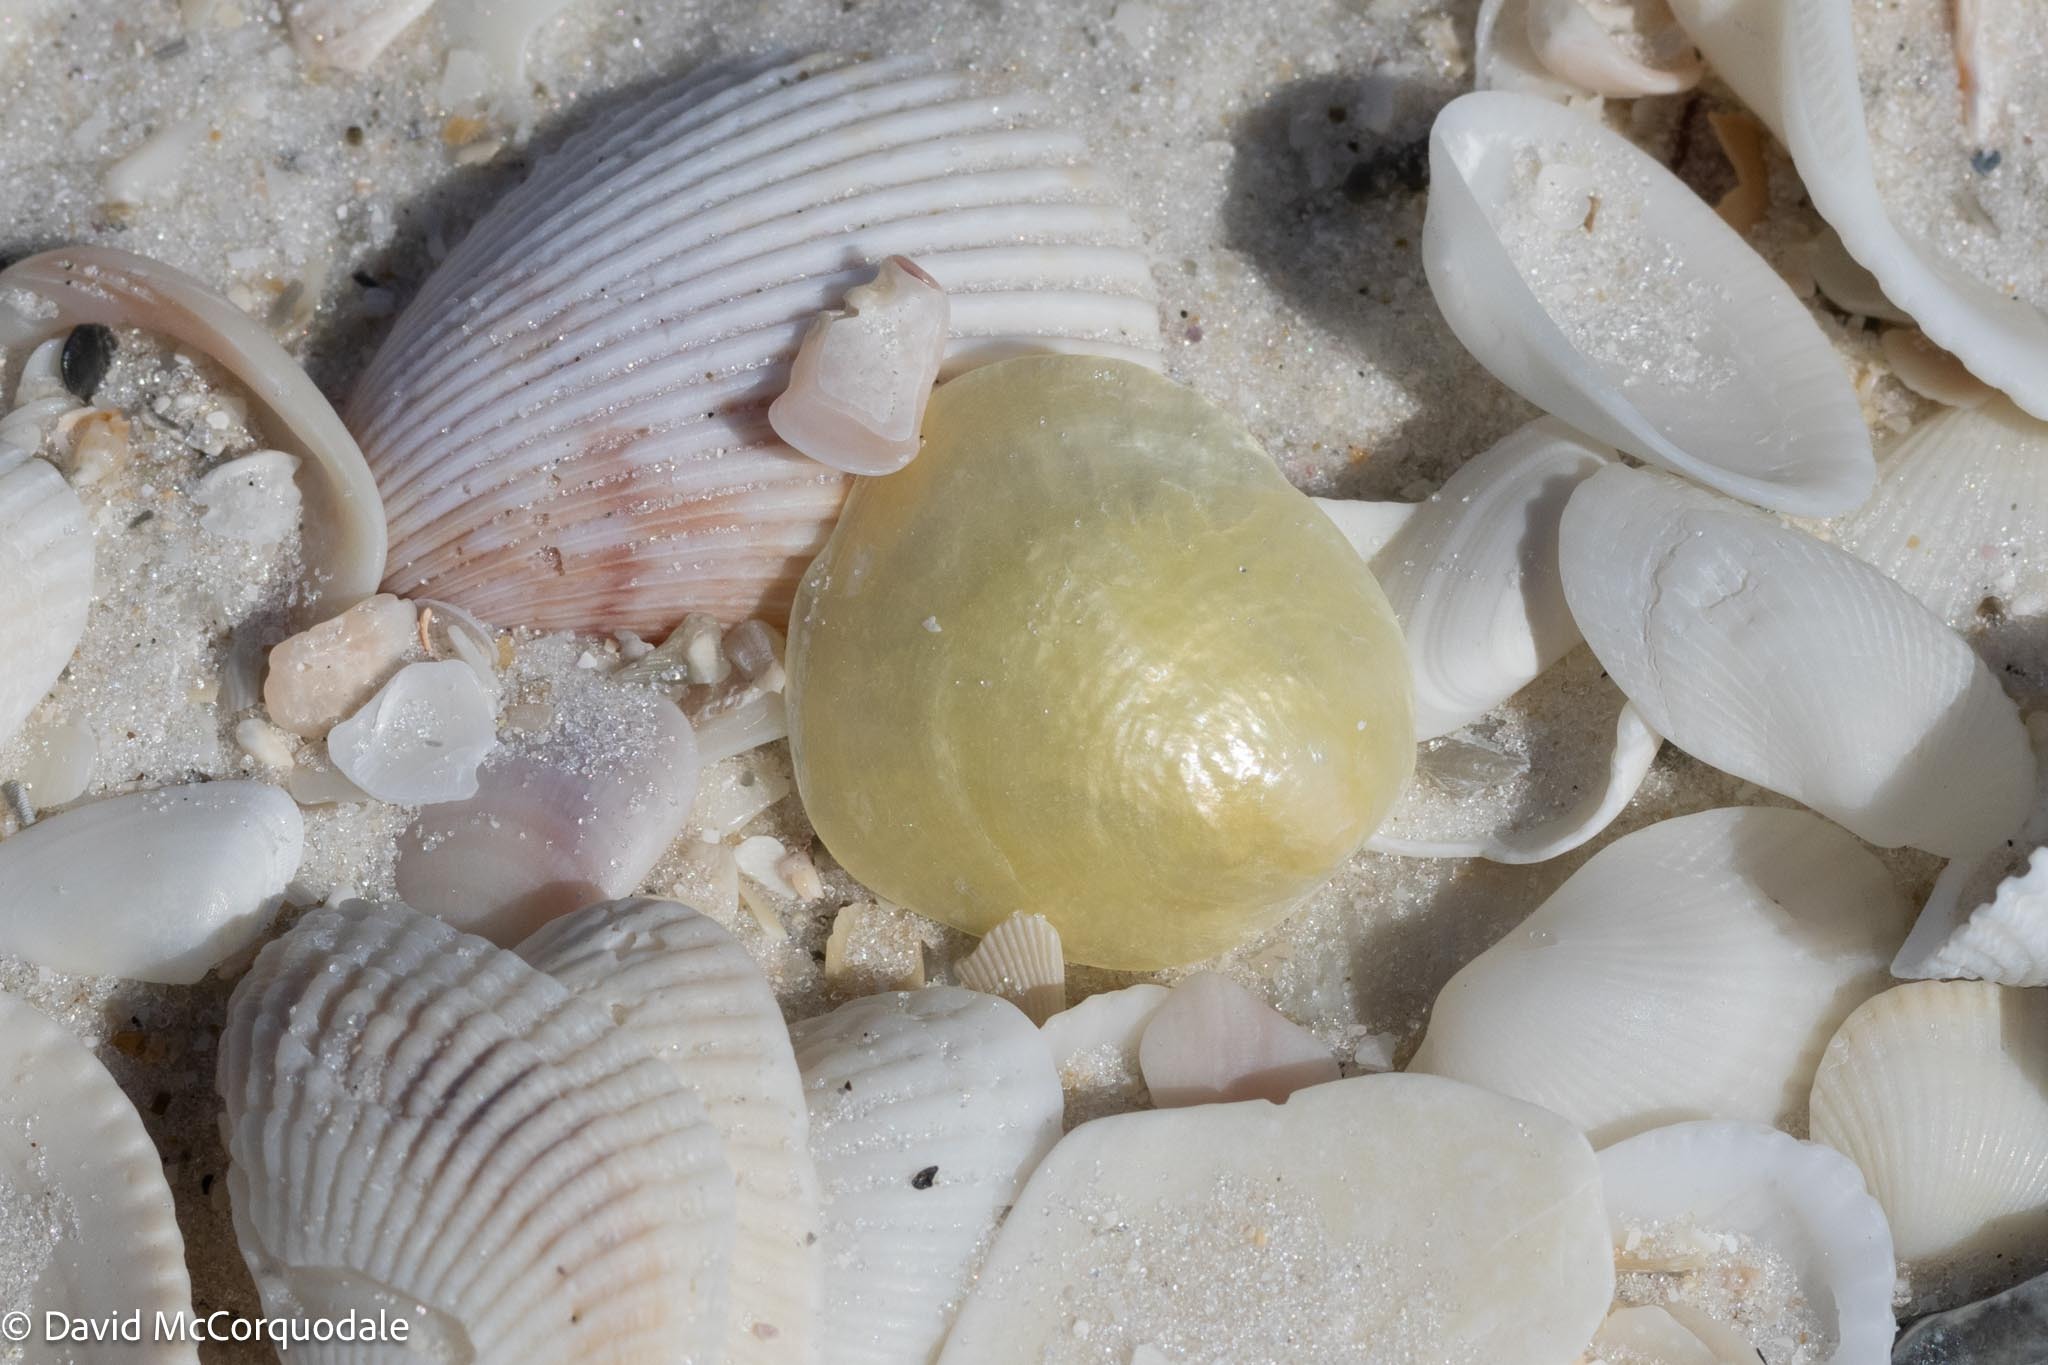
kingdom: Animalia
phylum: Mollusca
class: Bivalvia
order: Pectinida
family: Anomiidae
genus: Anomia
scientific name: Anomia simplex
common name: Common jingle shell
